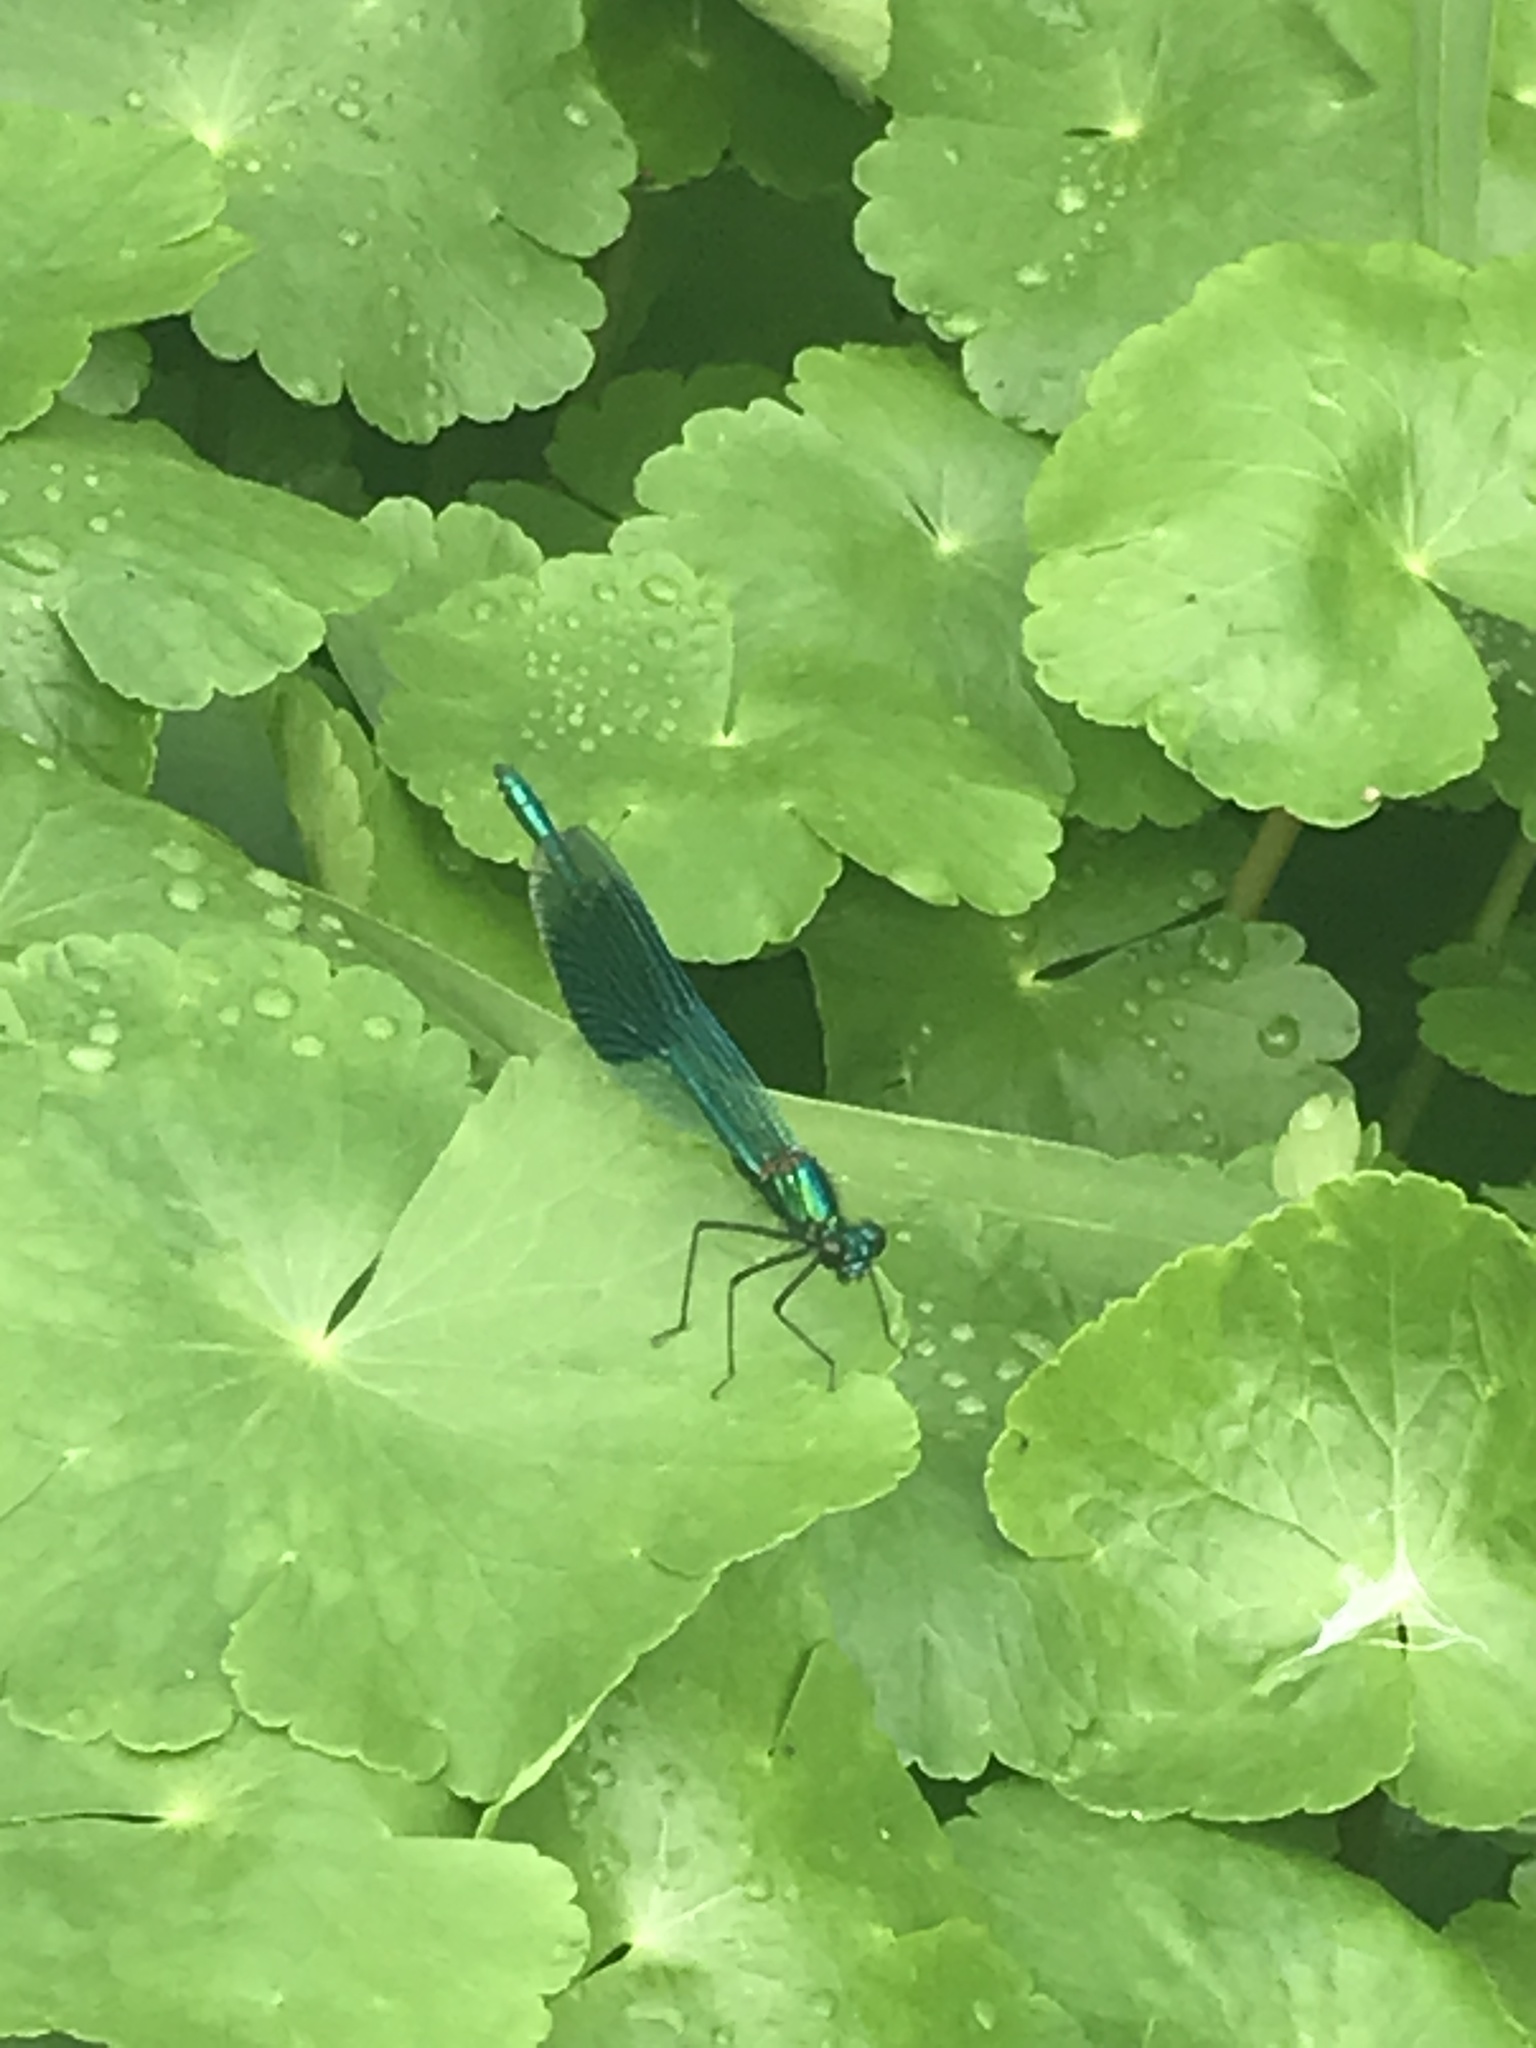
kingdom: Animalia
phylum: Arthropoda
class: Insecta
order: Odonata
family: Calopterygidae
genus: Calopteryx
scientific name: Calopteryx splendens
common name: Banded demoiselle
